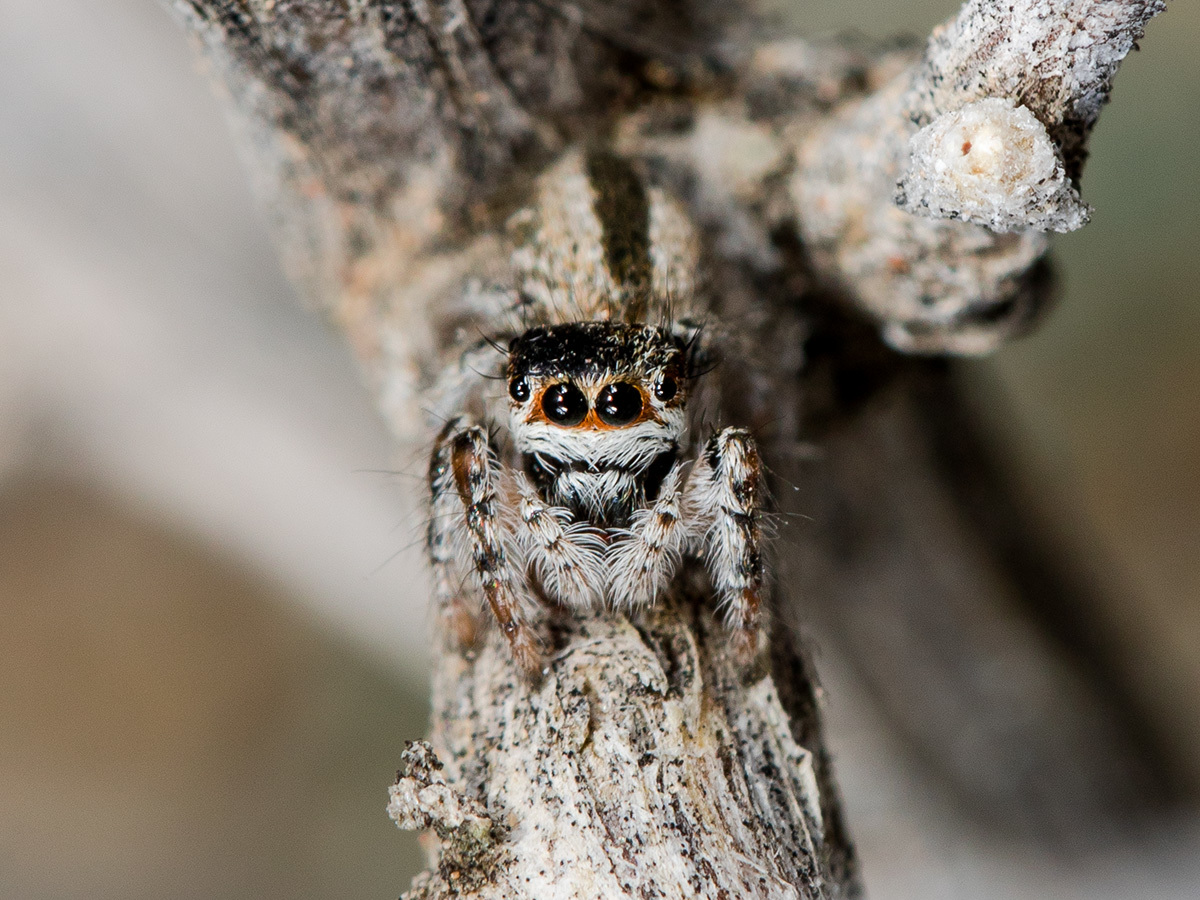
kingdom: Animalia
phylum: Arthropoda
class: Arachnida
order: Araneae
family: Salticidae
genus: Mogrus
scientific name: Mogrus antoninus
